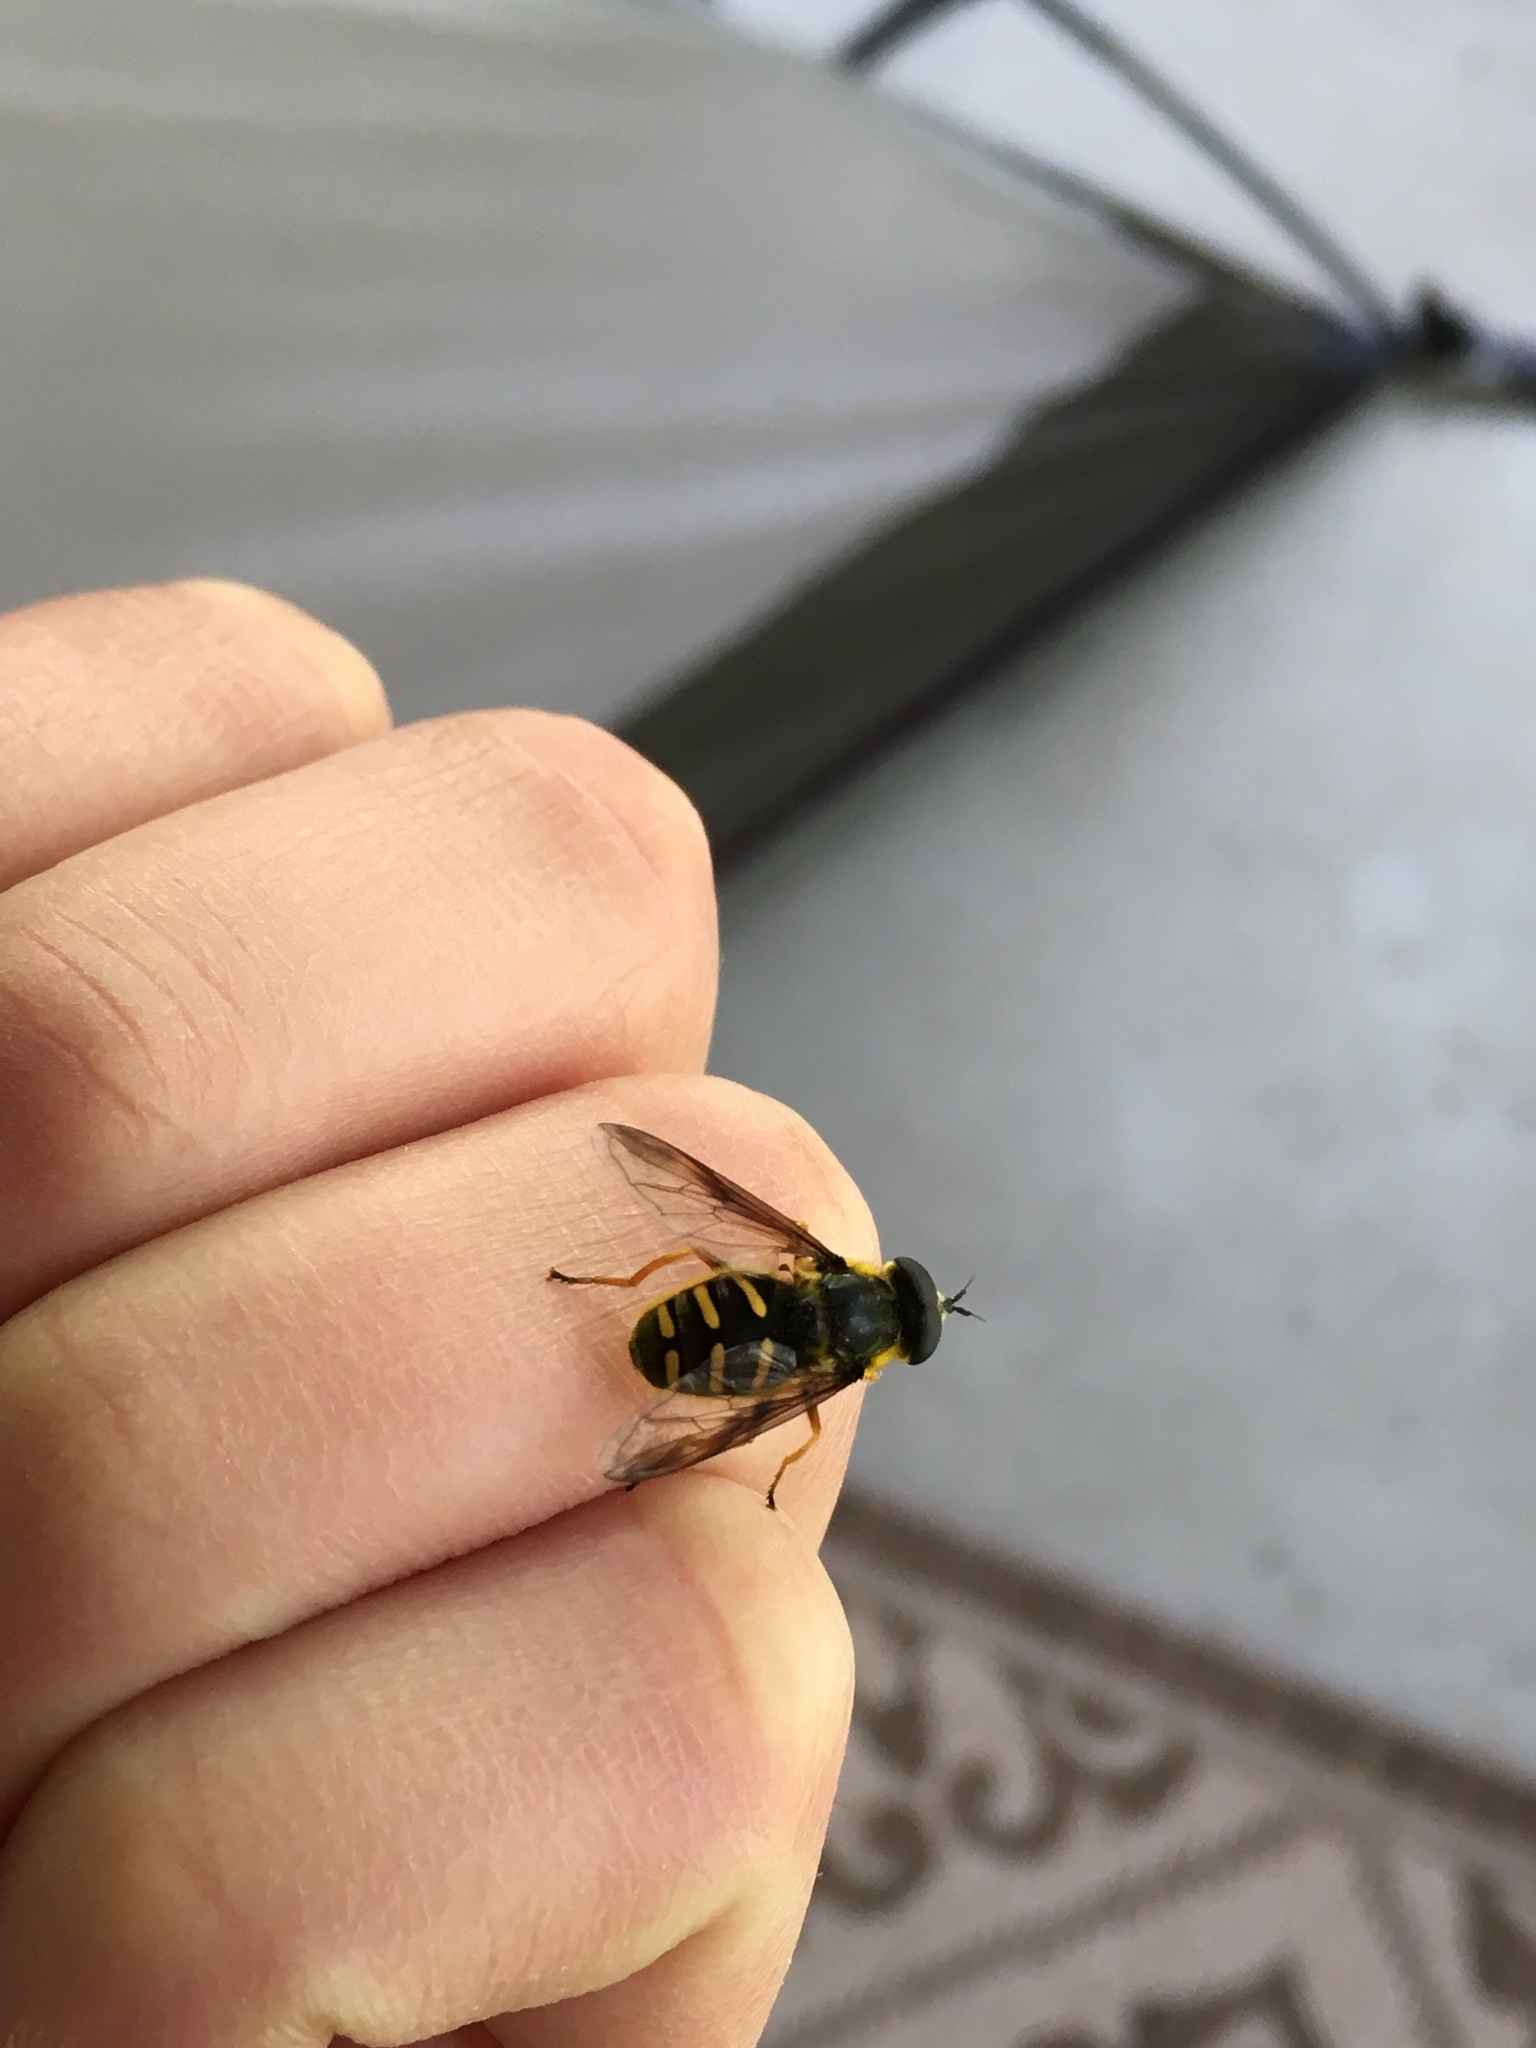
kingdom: Animalia
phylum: Arthropoda
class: Insecta
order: Diptera
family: Syrphidae
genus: Sericomyia
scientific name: Sericomyia chrysotoxoides
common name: Oblique-banded pond fly
